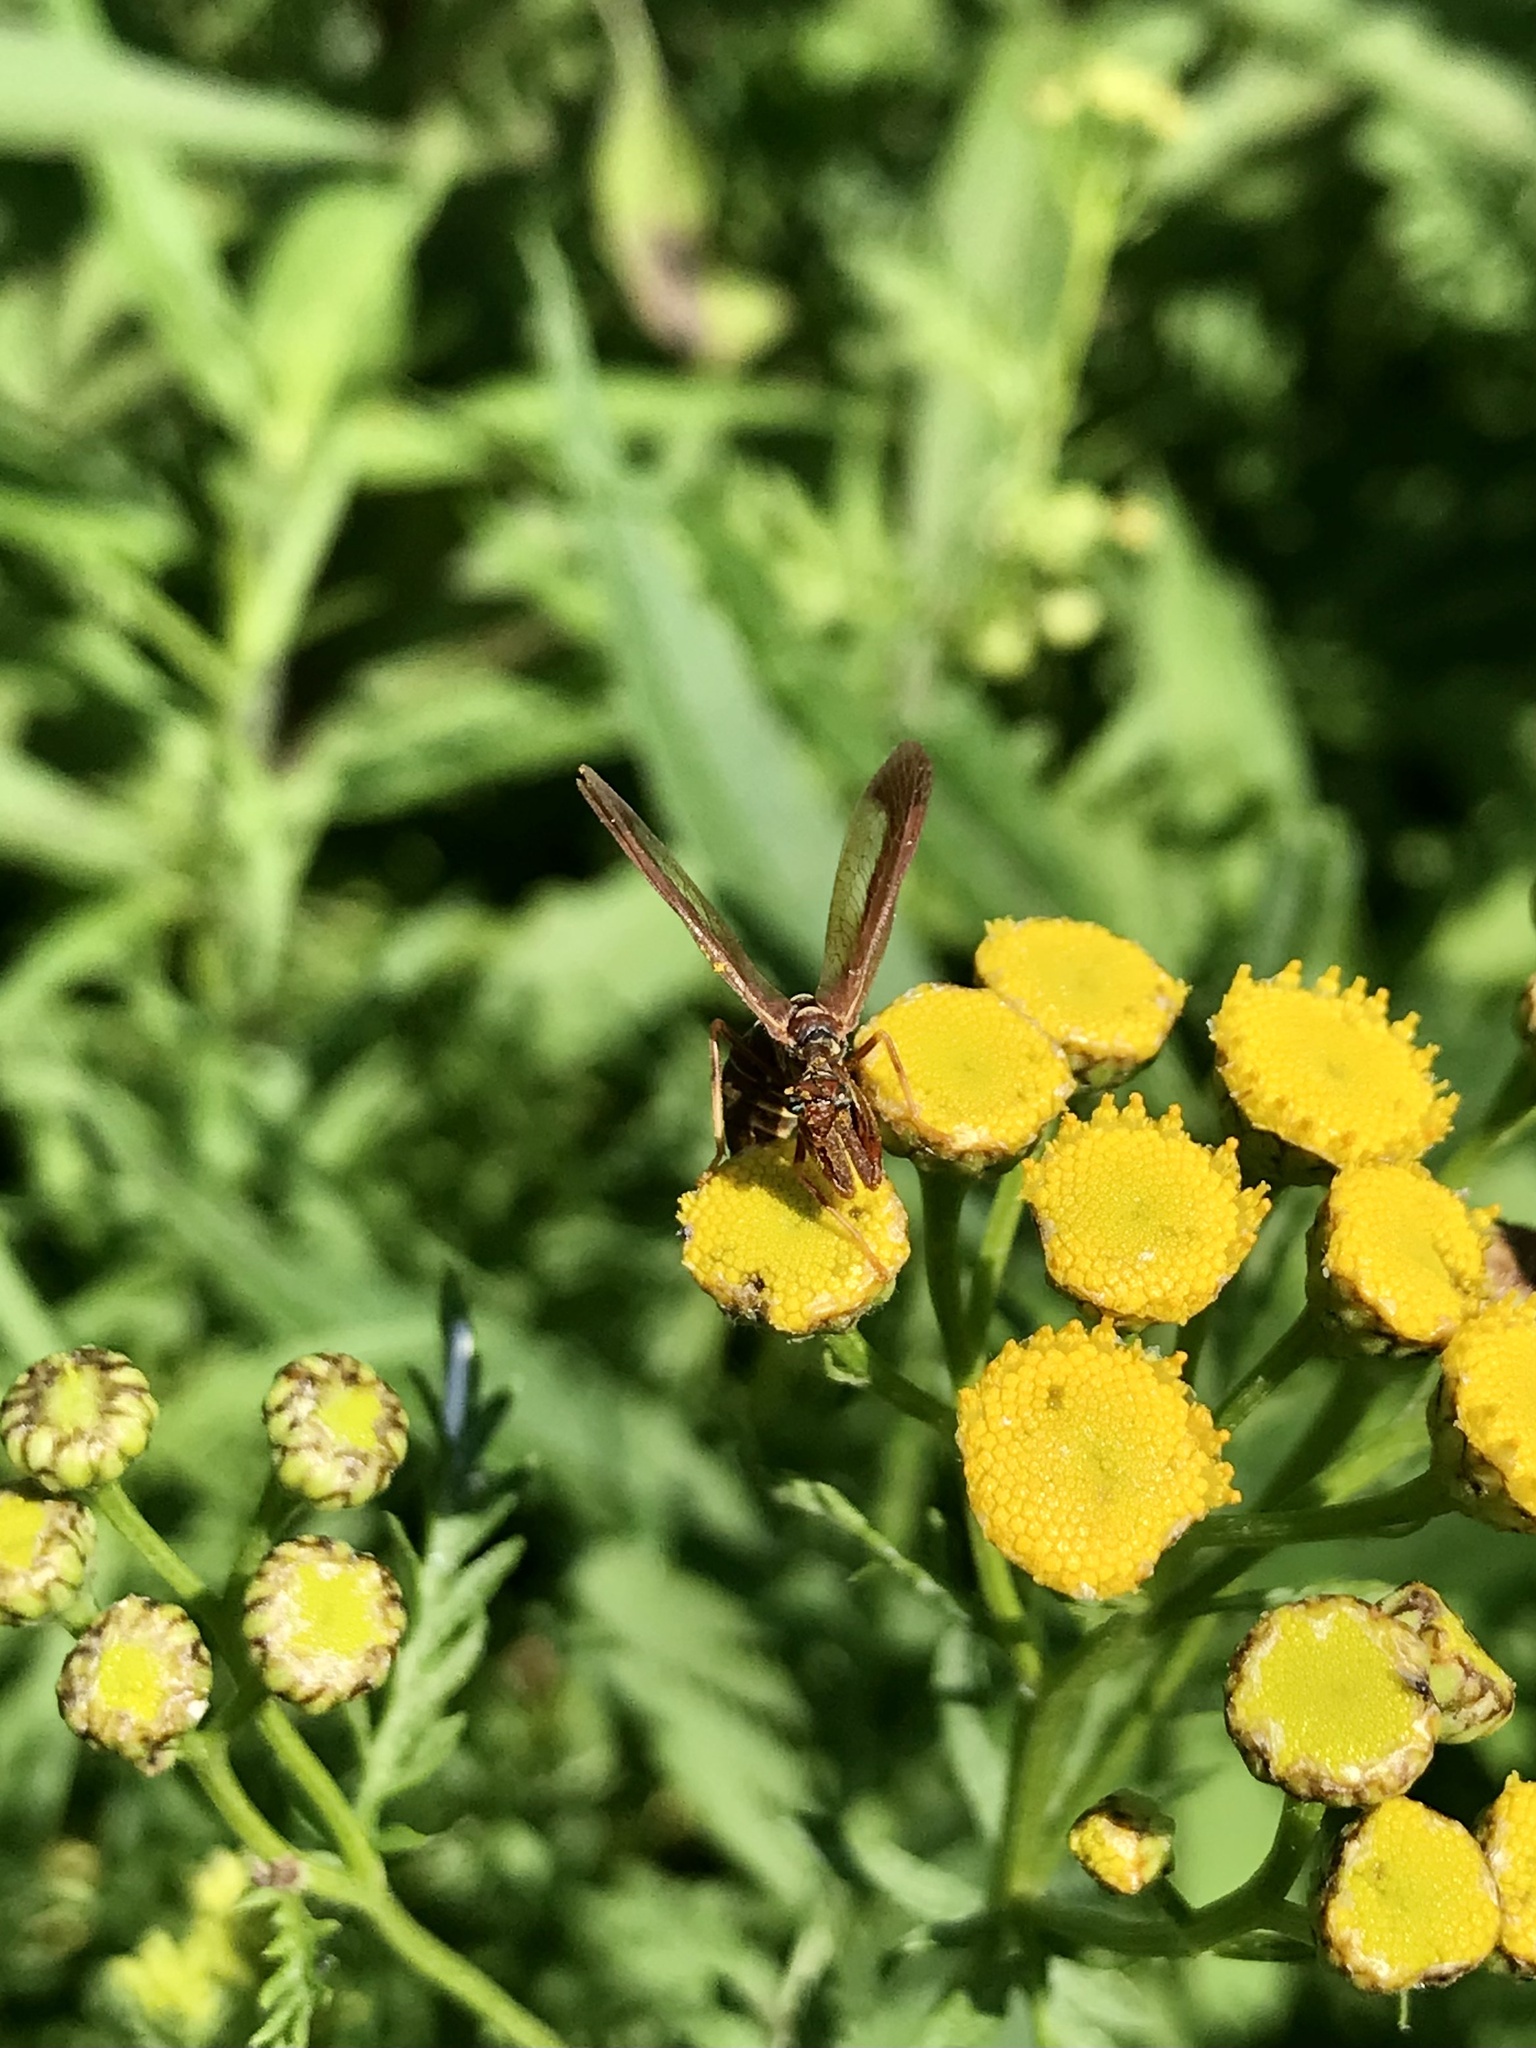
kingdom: Animalia
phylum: Arthropoda
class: Insecta
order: Neuroptera
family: Mantispidae
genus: Climaciella
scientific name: Climaciella brunnea
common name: Brown wasp mantidfly
